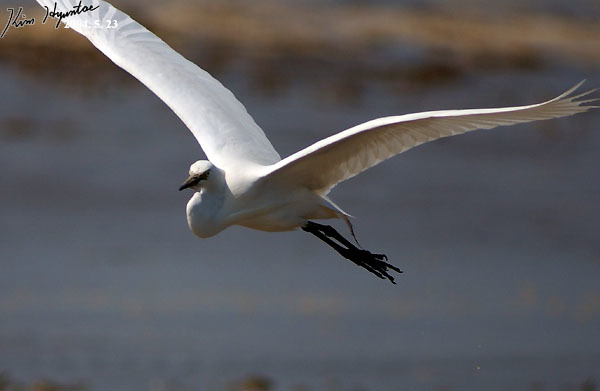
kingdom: Animalia
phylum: Chordata
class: Aves
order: Pelecaniformes
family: Ardeidae
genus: Egretta
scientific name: Egretta intermedia
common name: Intermediate egret
